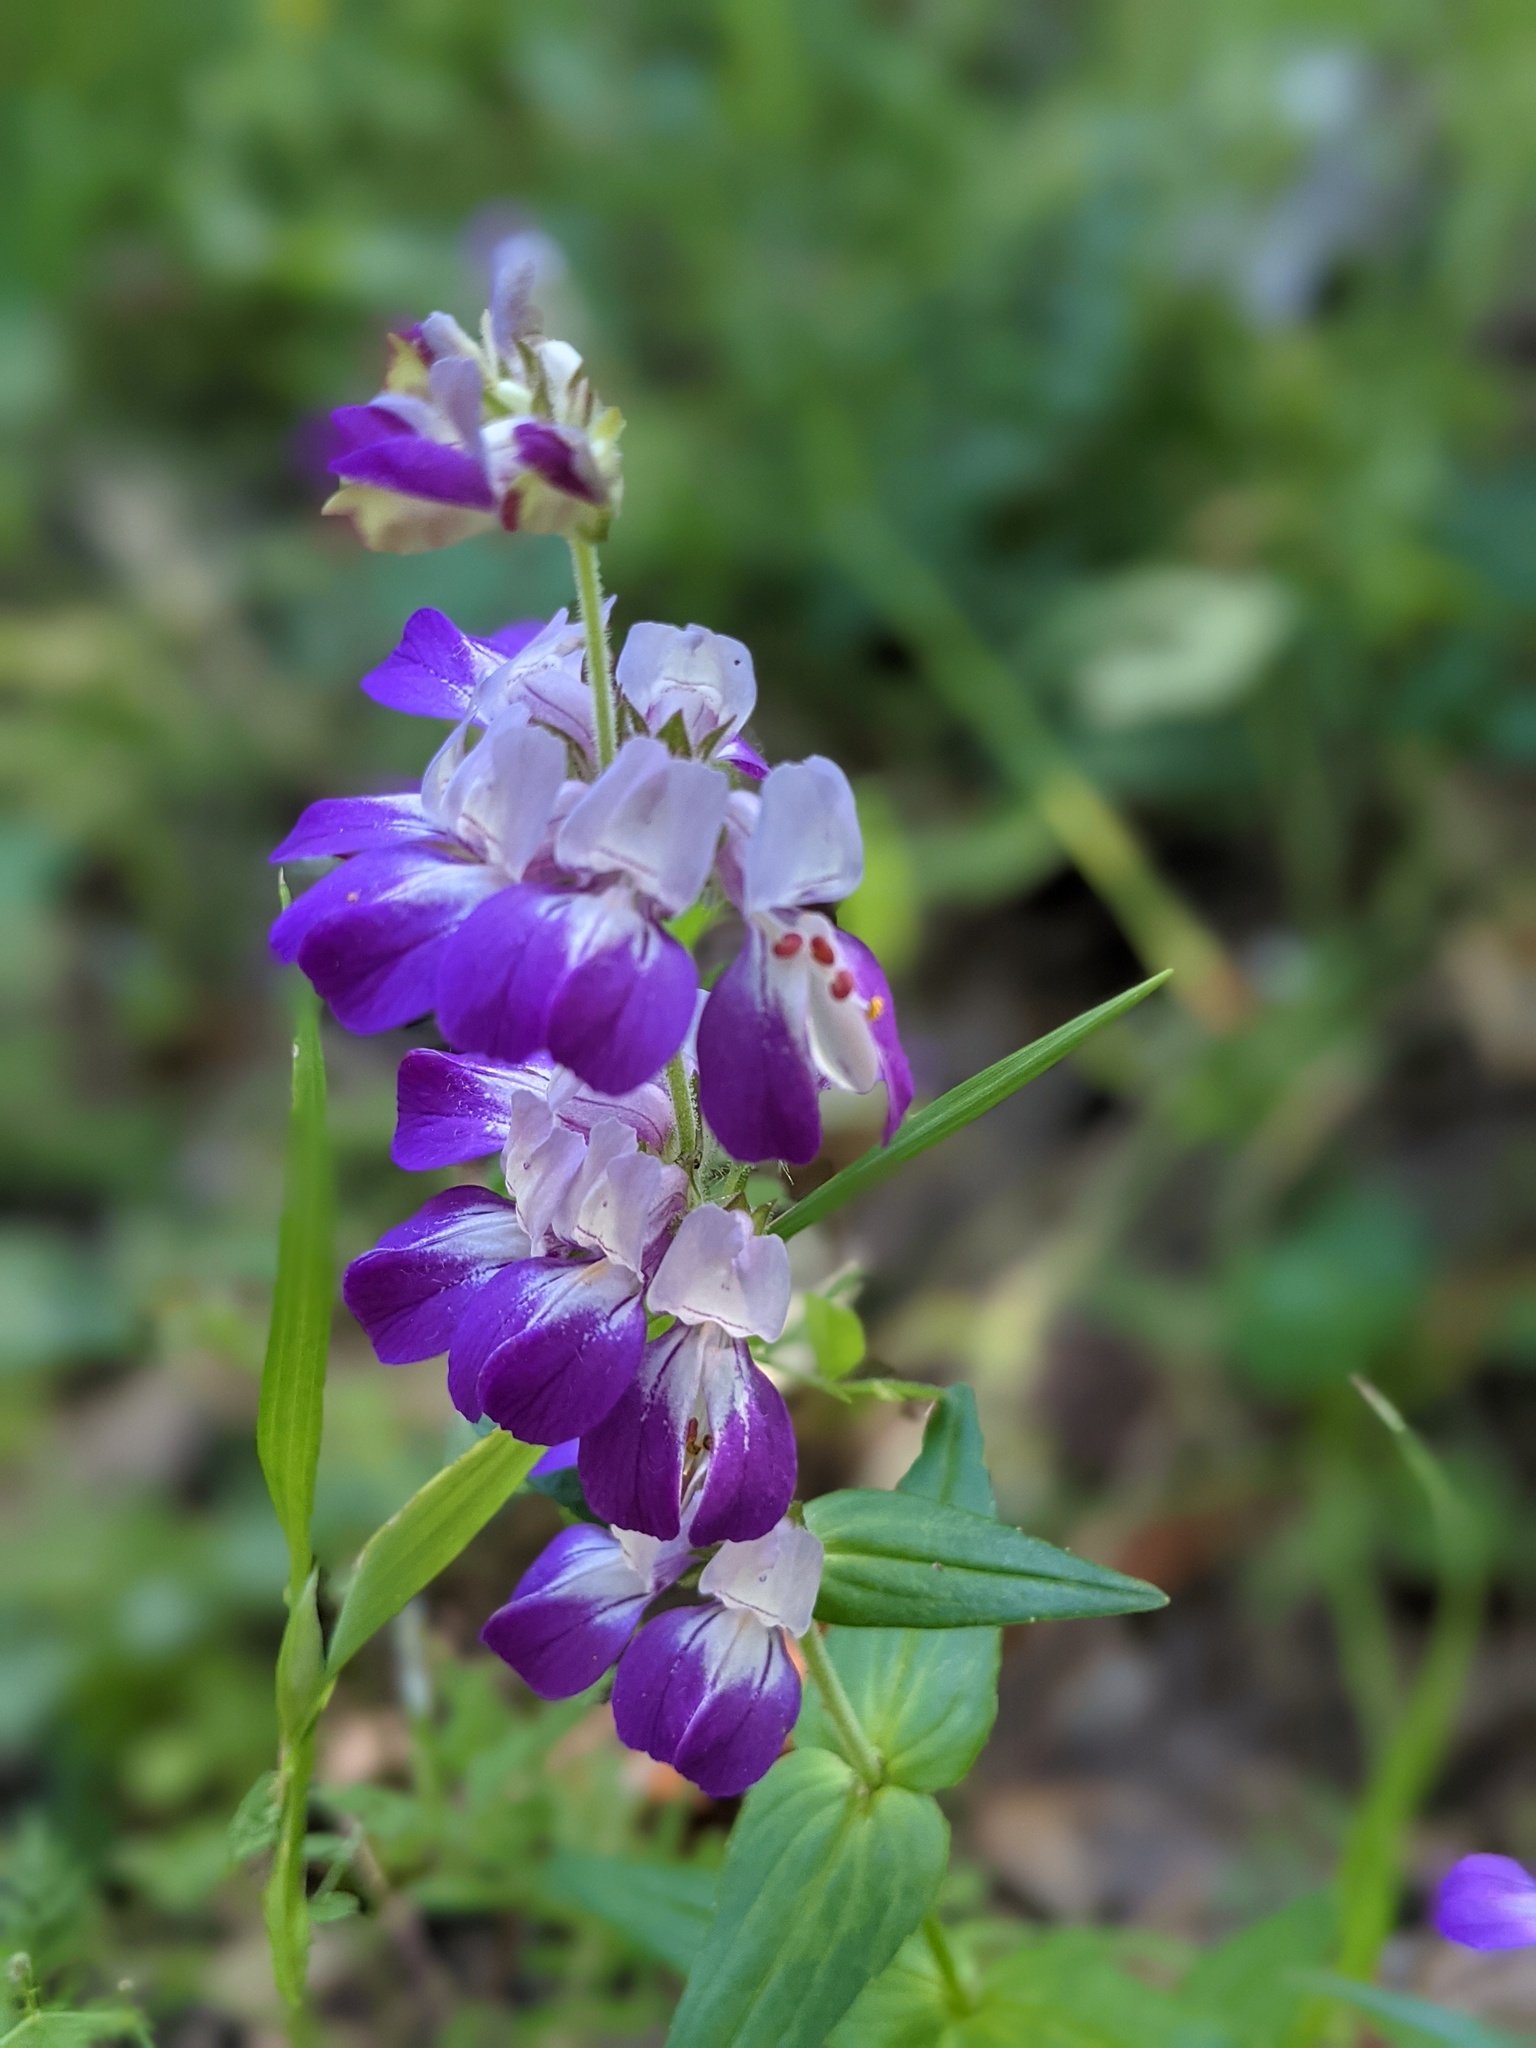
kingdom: Plantae
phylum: Tracheophyta
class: Magnoliopsida
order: Lamiales
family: Plantaginaceae
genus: Collinsia
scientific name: Collinsia heterophylla
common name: Chinese-houses
